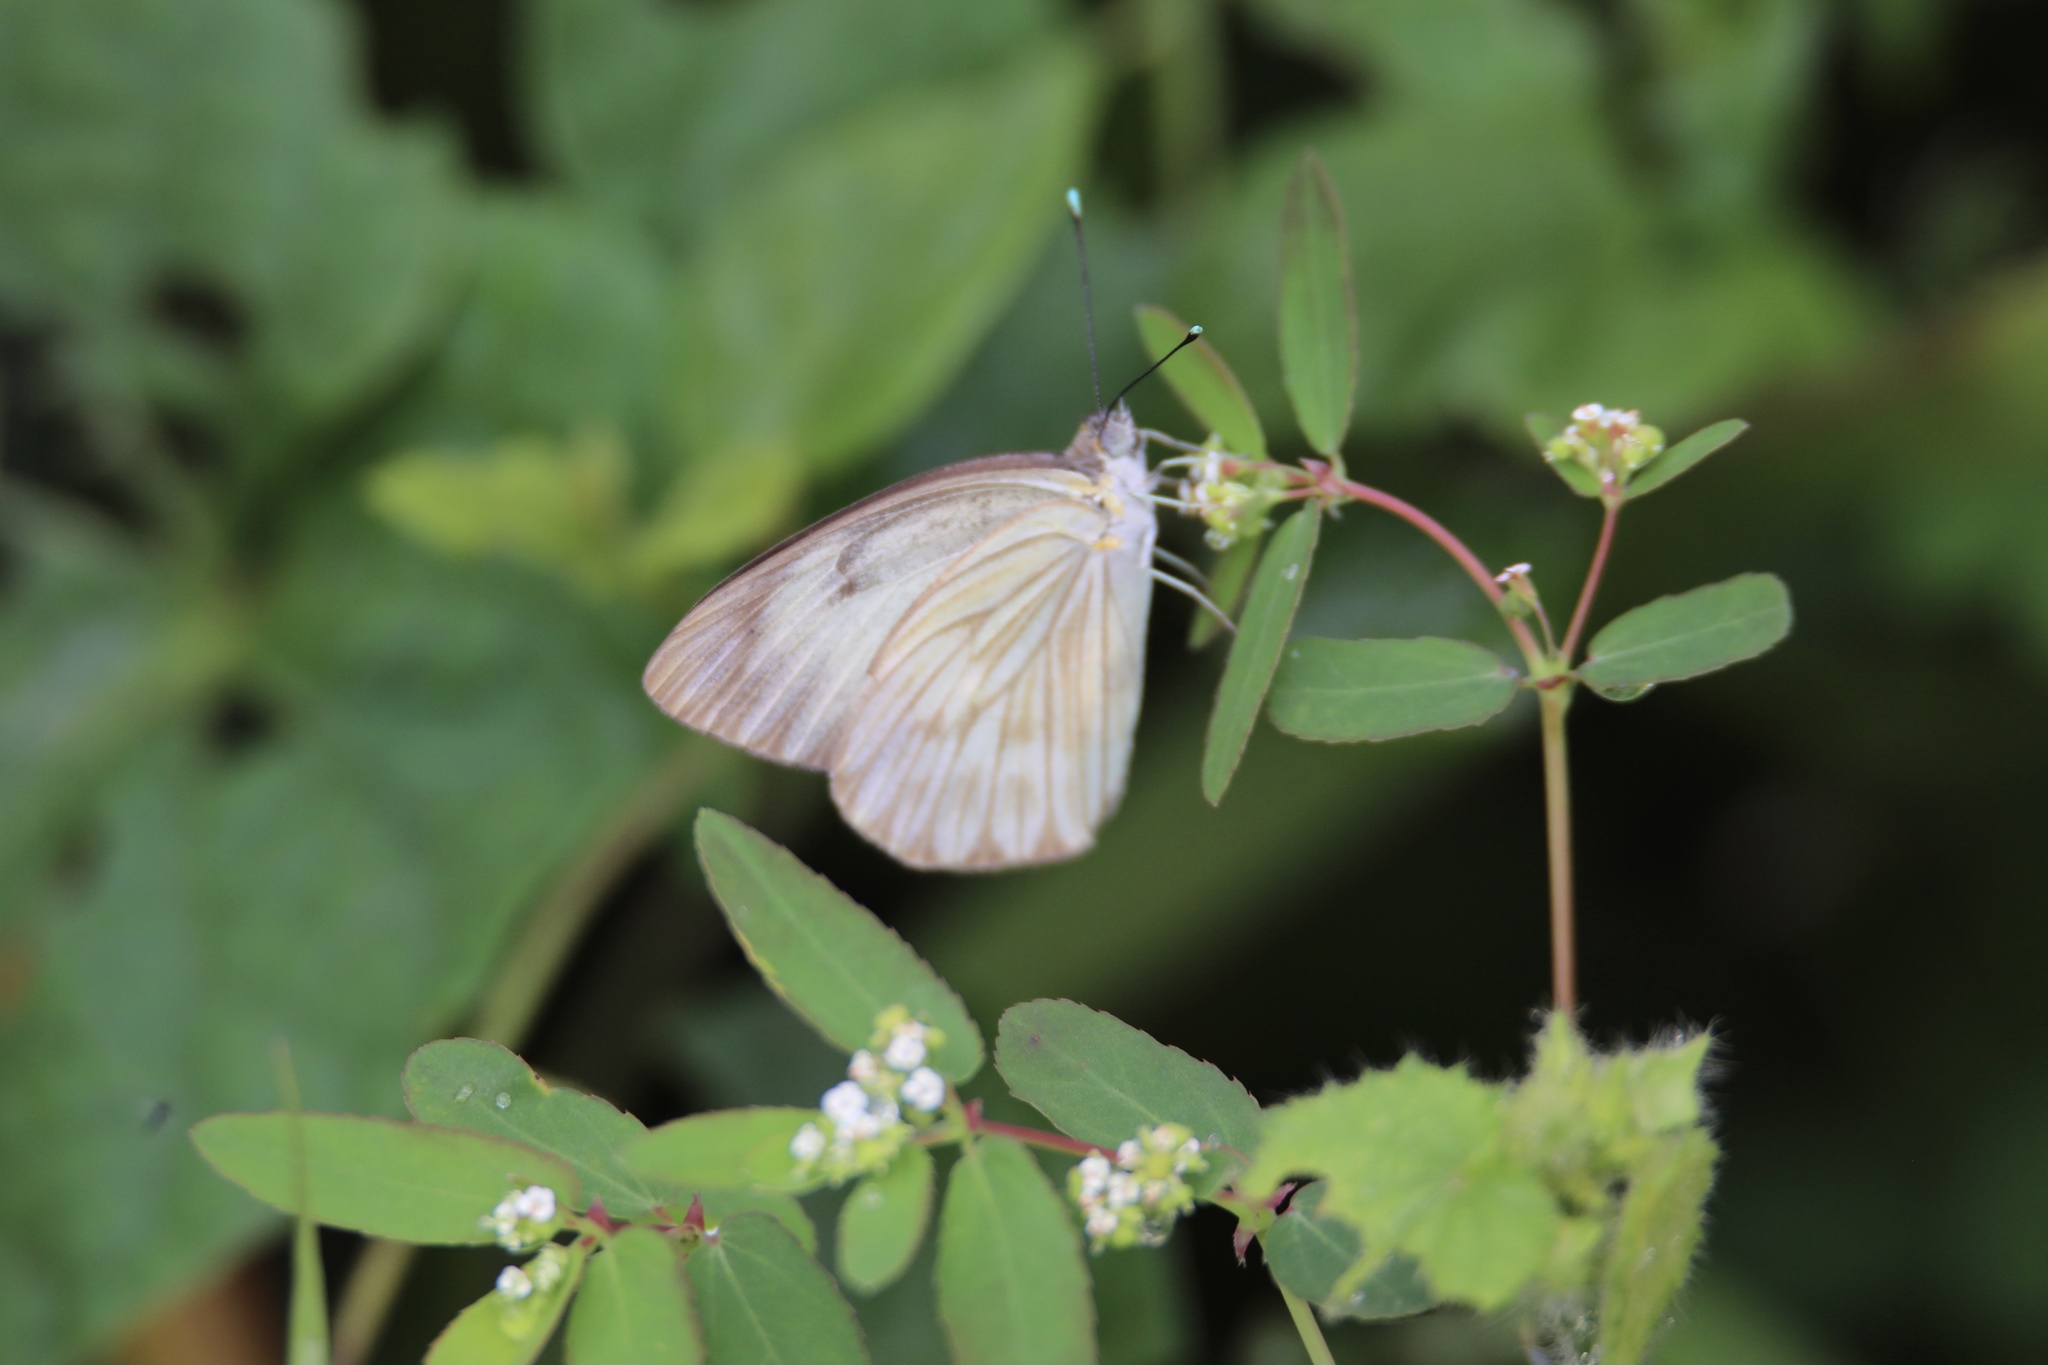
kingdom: Animalia
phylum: Arthropoda
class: Insecta
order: Lepidoptera
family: Pieridae
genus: Ascia
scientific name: Ascia monuste
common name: Great southern white
